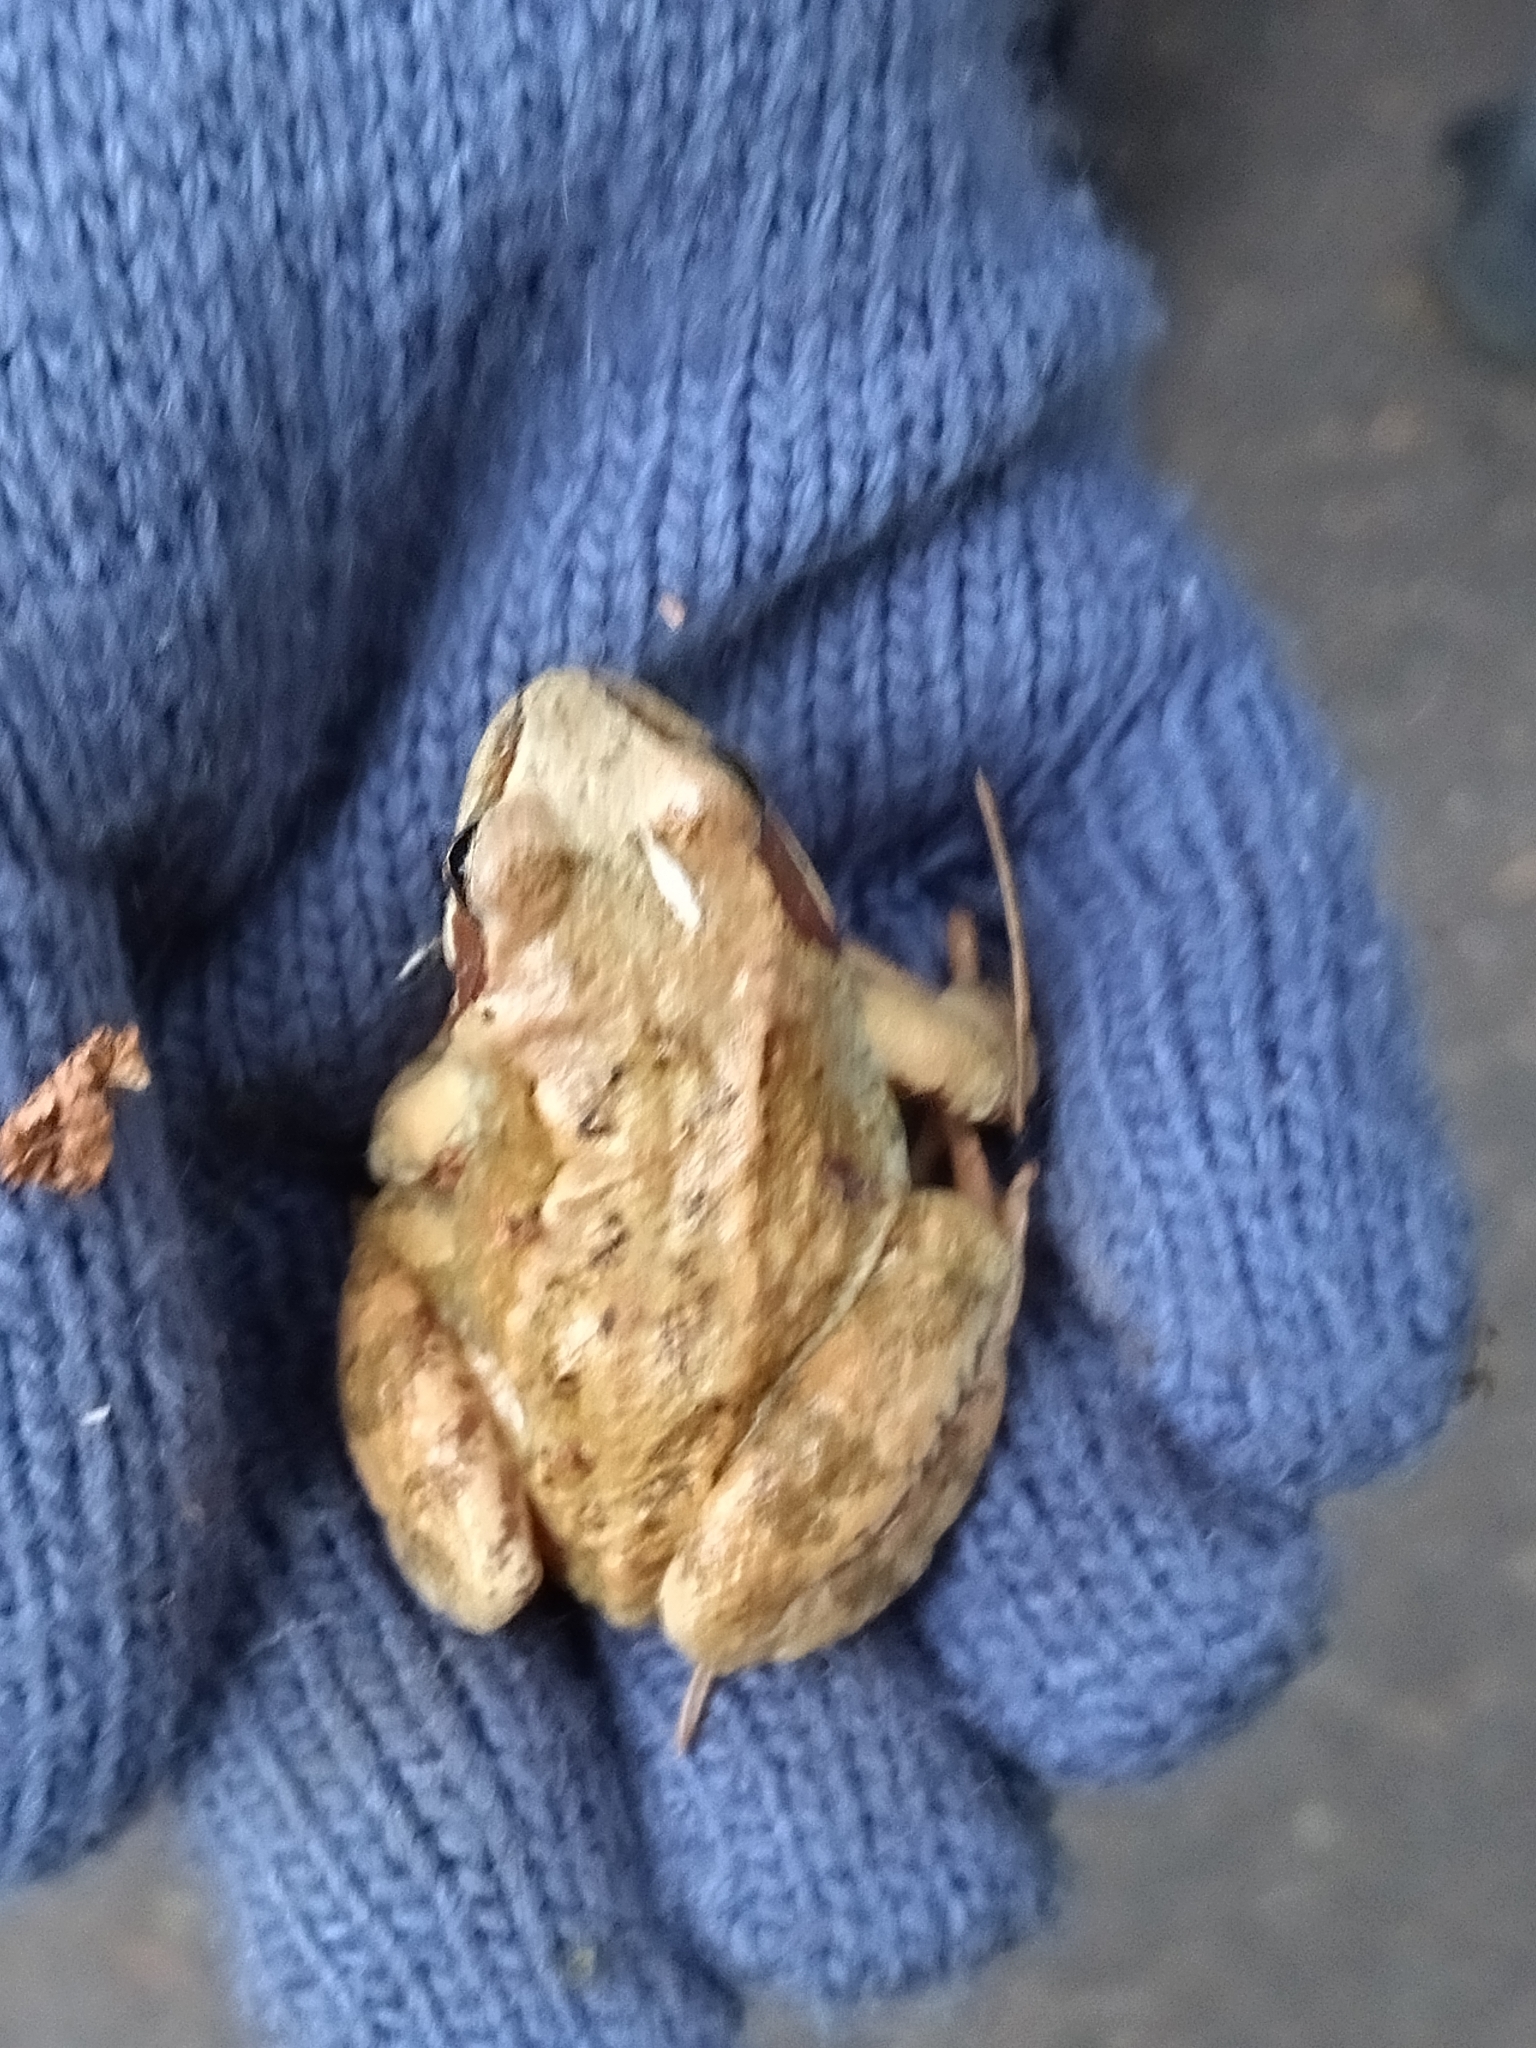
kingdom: Animalia
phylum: Chordata
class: Amphibia
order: Anura
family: Ranidae
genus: Rana
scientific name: Rana temporaria
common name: Common frog
